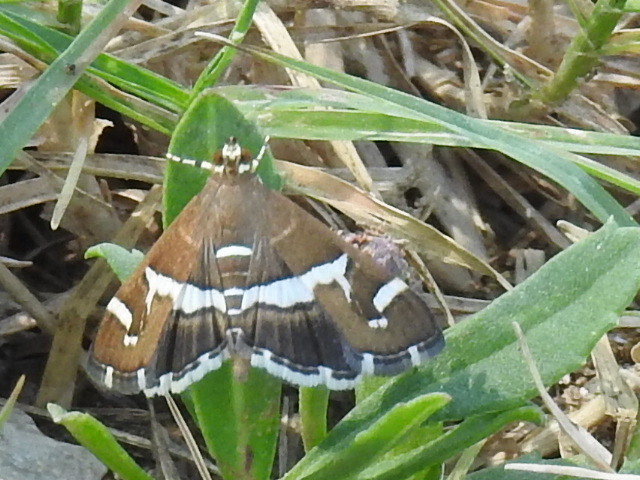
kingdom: Animalia
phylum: Arthropoda
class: Insecta
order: Lepidoptera
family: Crambidae
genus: Spoladea
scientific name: Spoladea recurvalis
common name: Beet webworm moth
